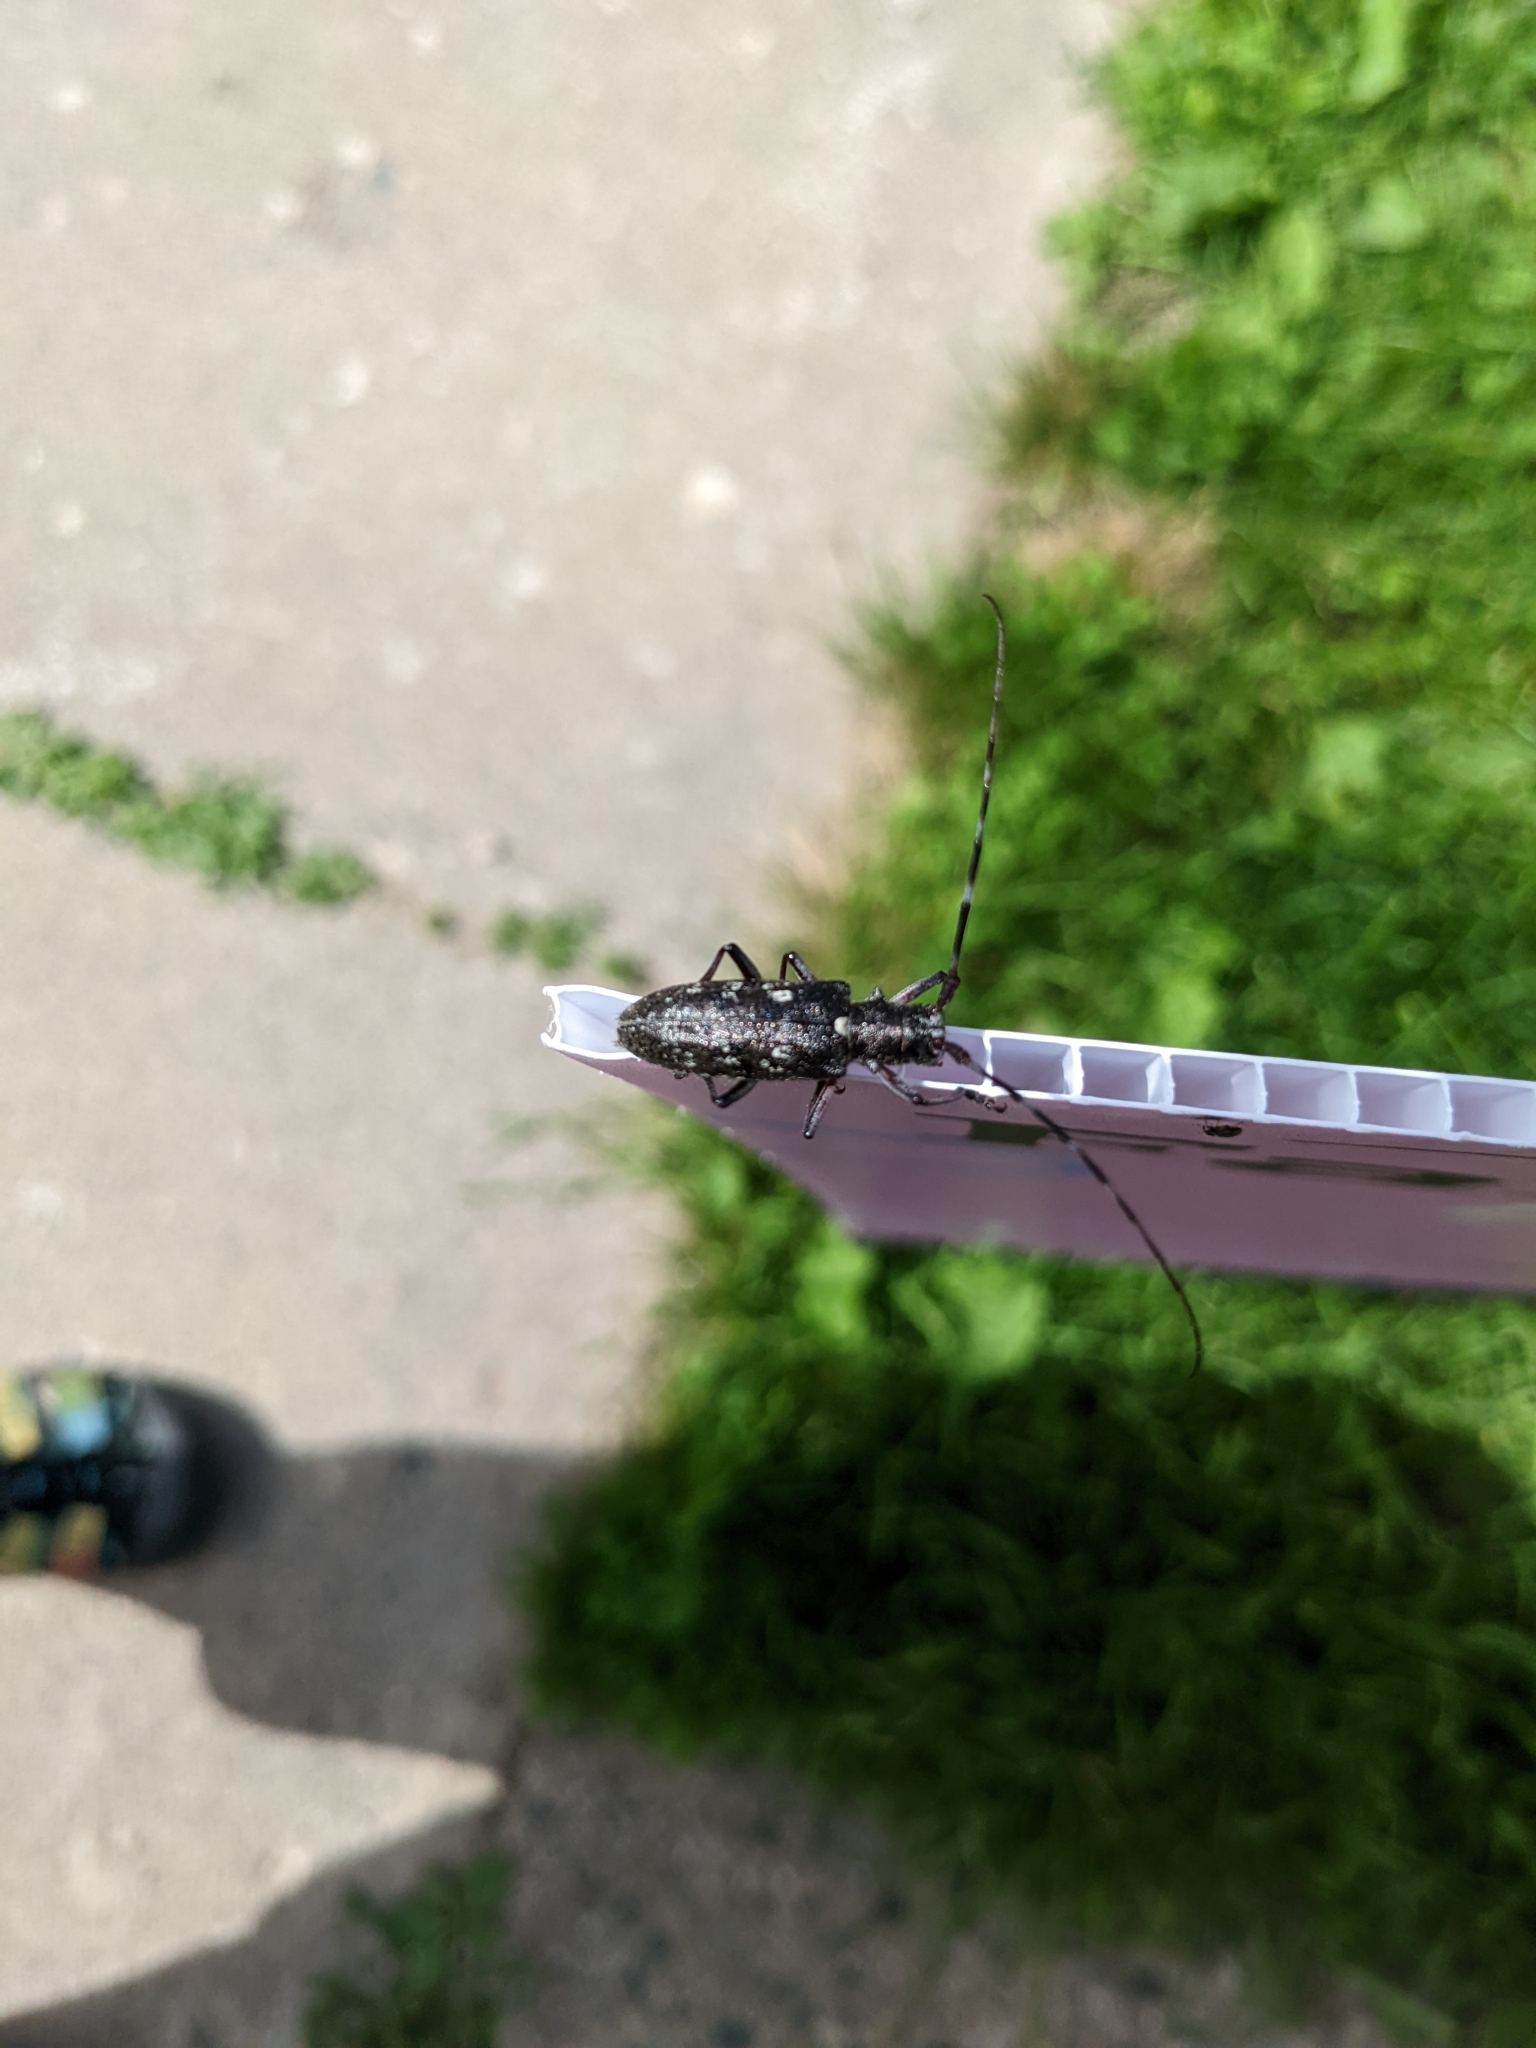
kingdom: Animalia
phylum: Arthropoda
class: Insecta
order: Coleoptera
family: Cerambycidae
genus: Monochamus
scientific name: Monochamus scutellatus
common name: White-spotted sawyer beetle
